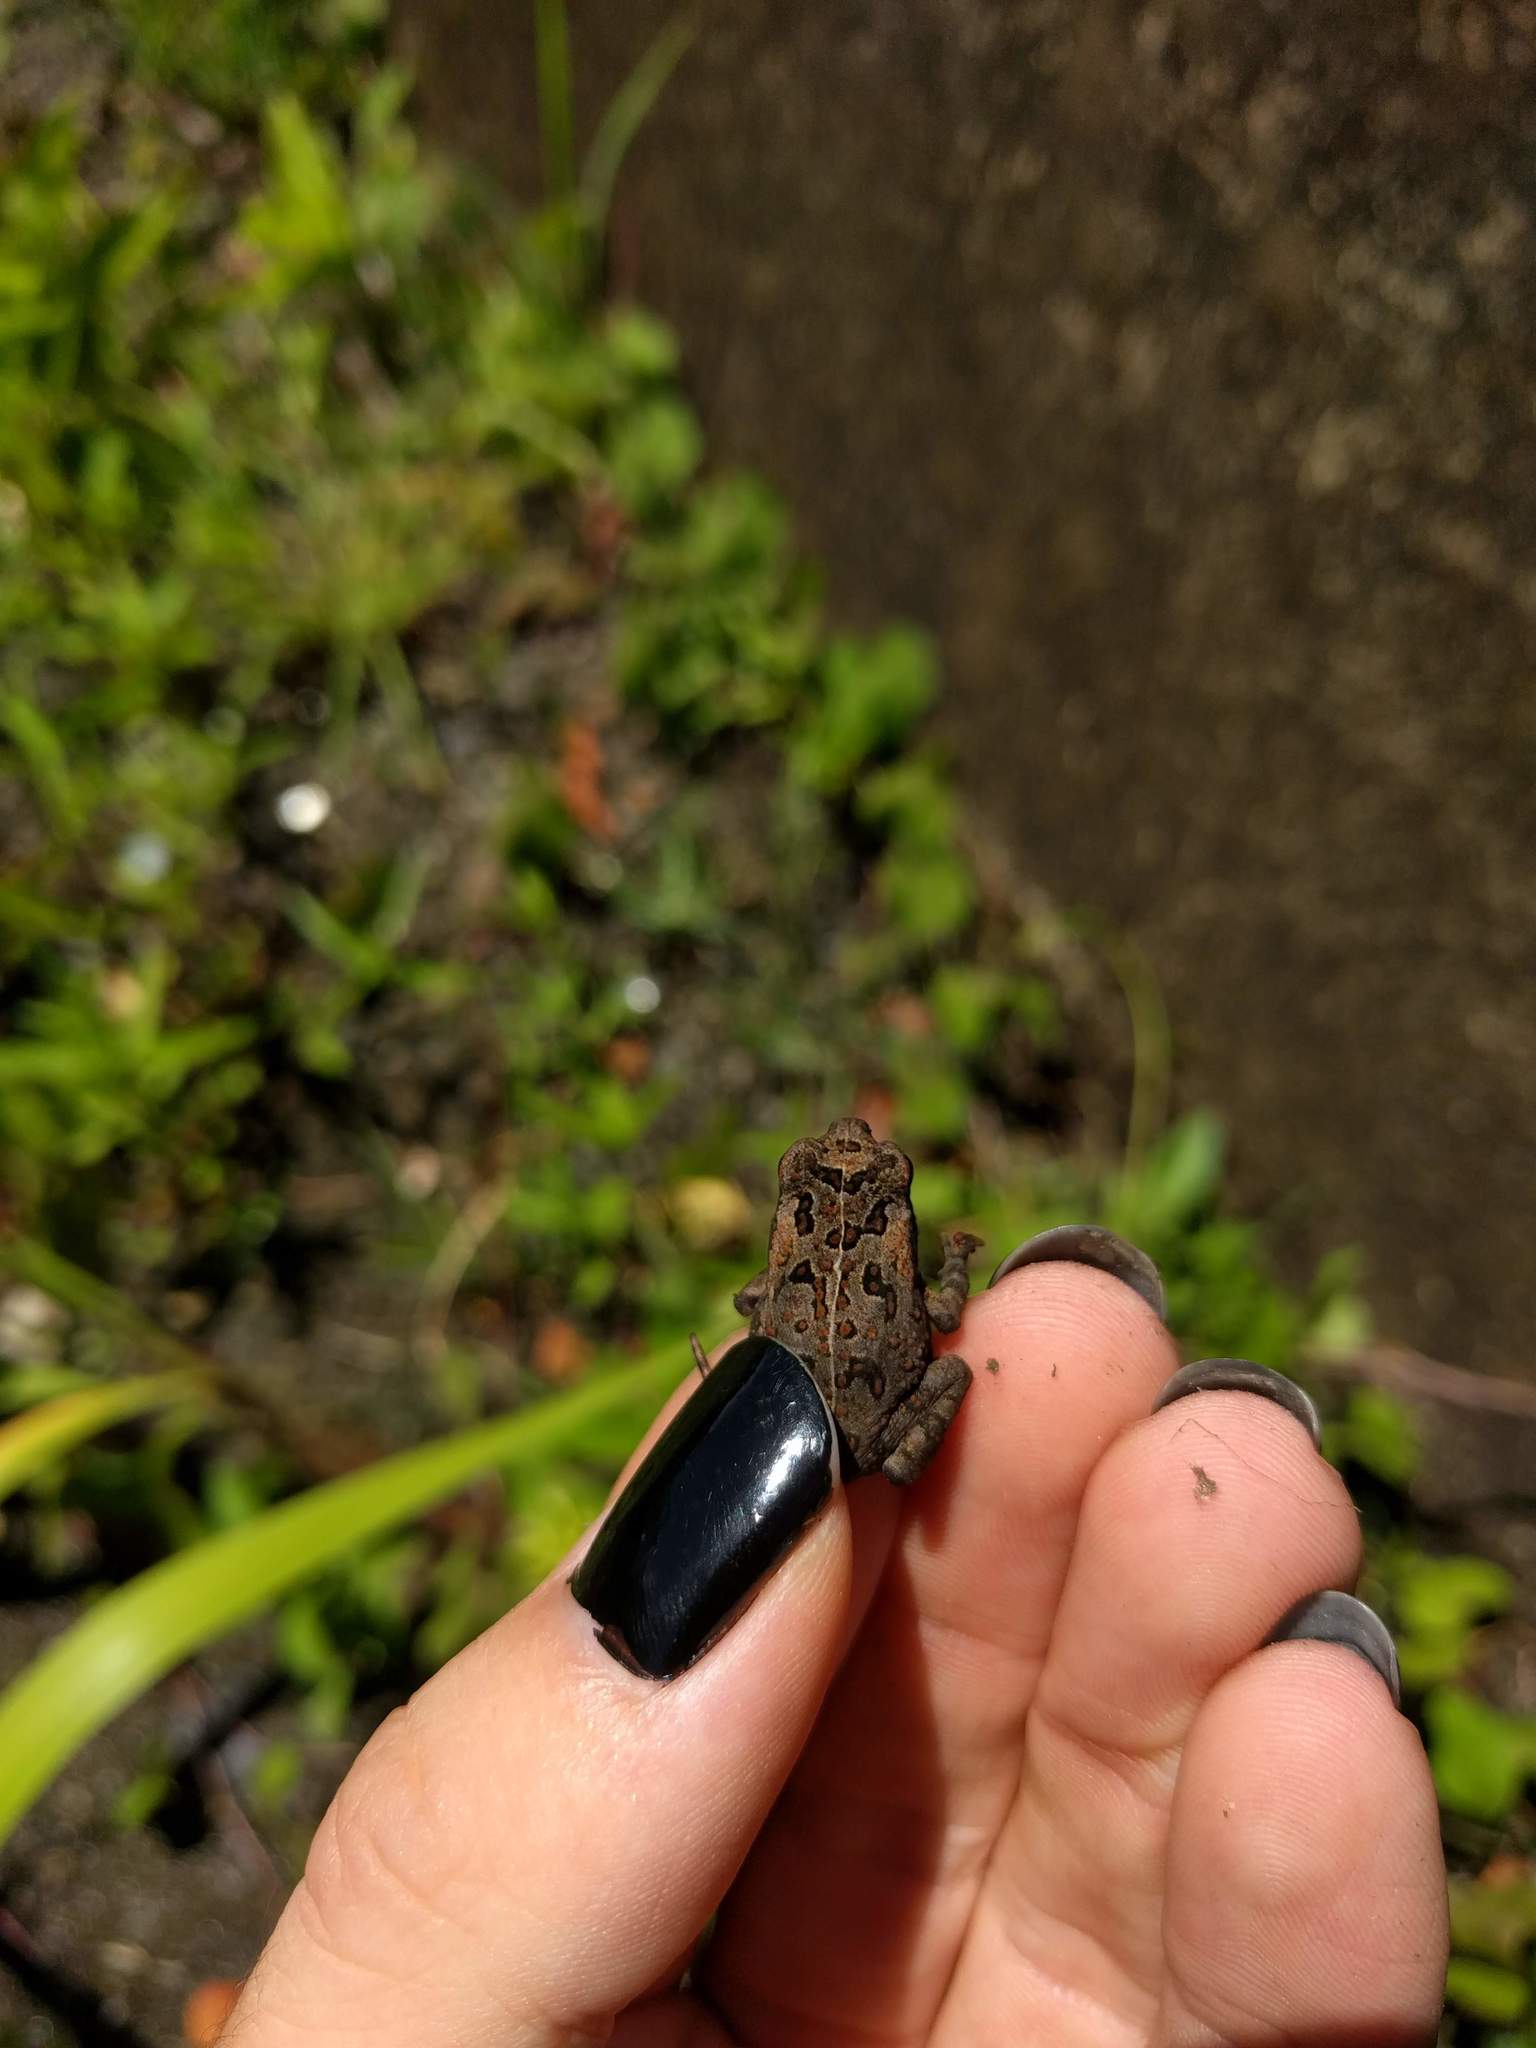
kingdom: Animalia
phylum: Chordata
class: Amphibia
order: Anura
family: Bufonidae
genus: Rhinella
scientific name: Rhinella marina
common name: Cane toad
